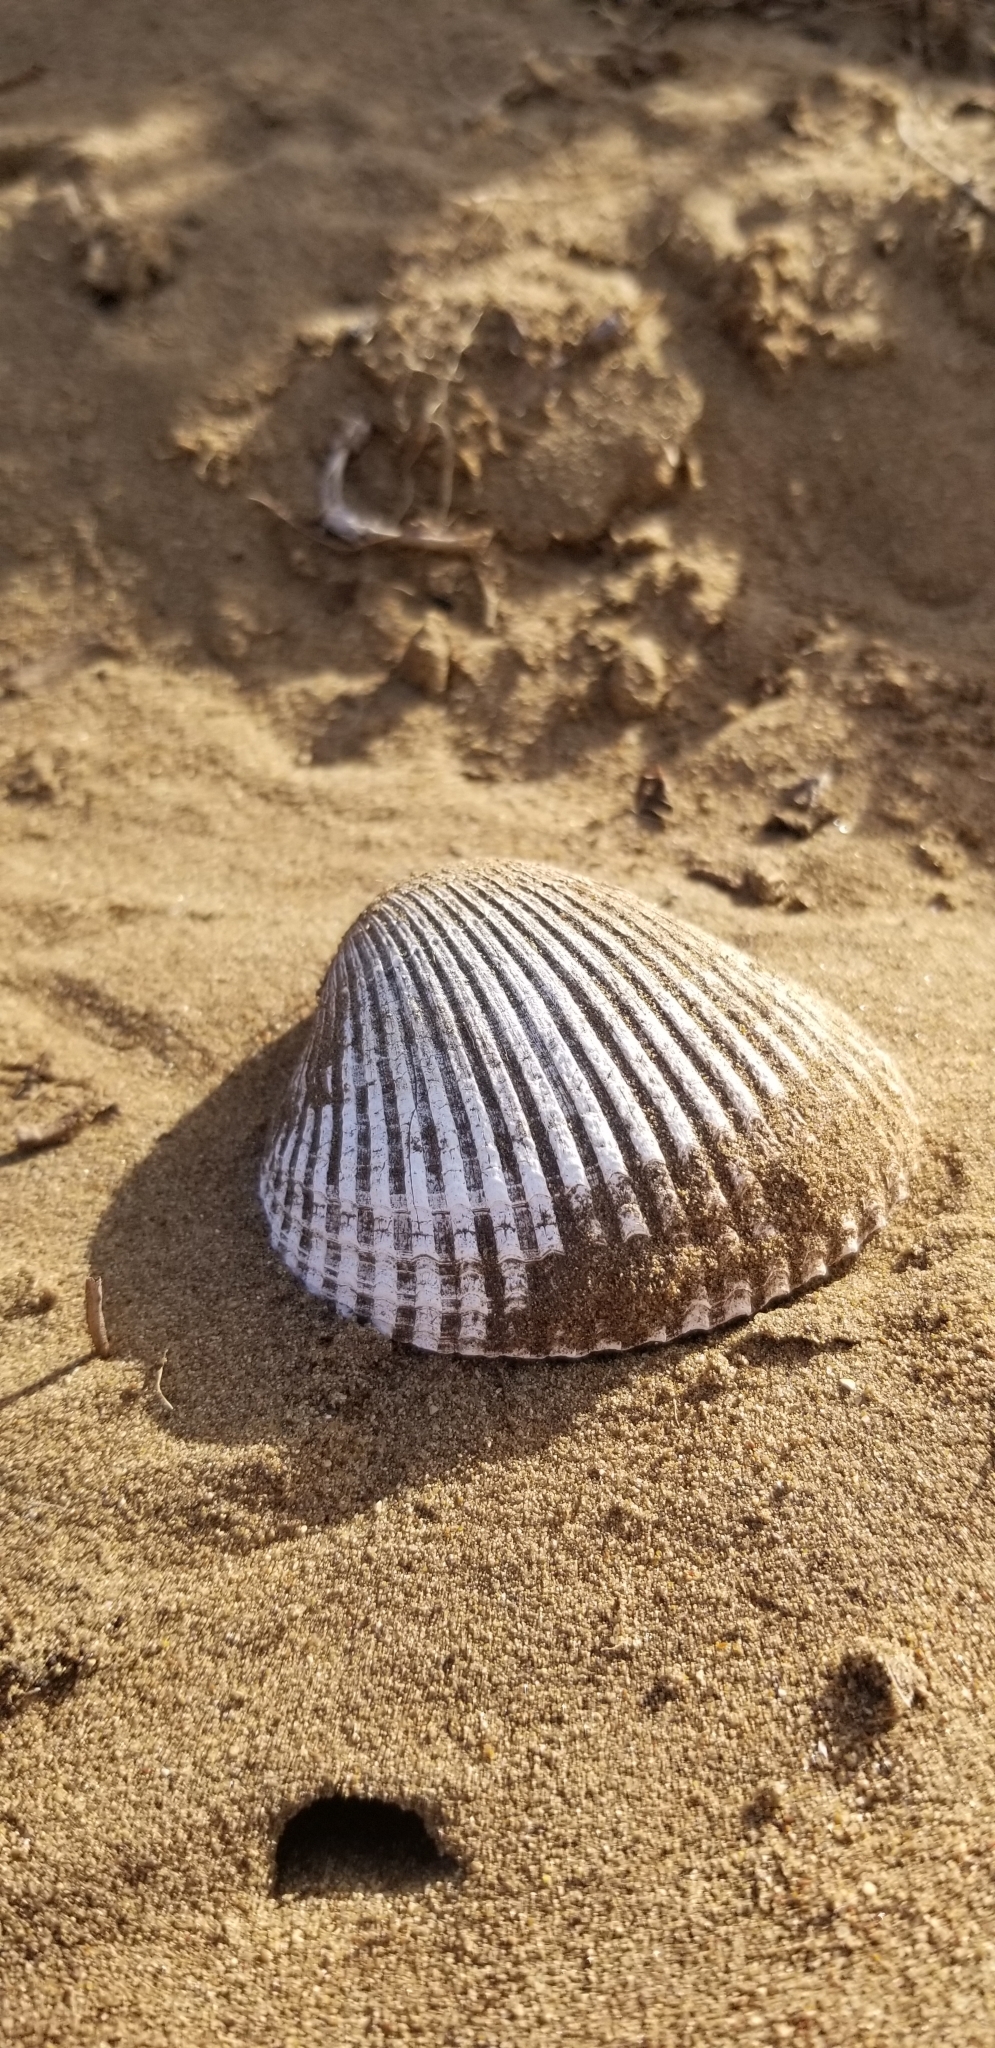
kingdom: Animalia
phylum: Mollusca
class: Bivalvia
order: Cardiida
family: Cardiidae
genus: Clinocardium
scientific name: Clinocardium nuttallii
